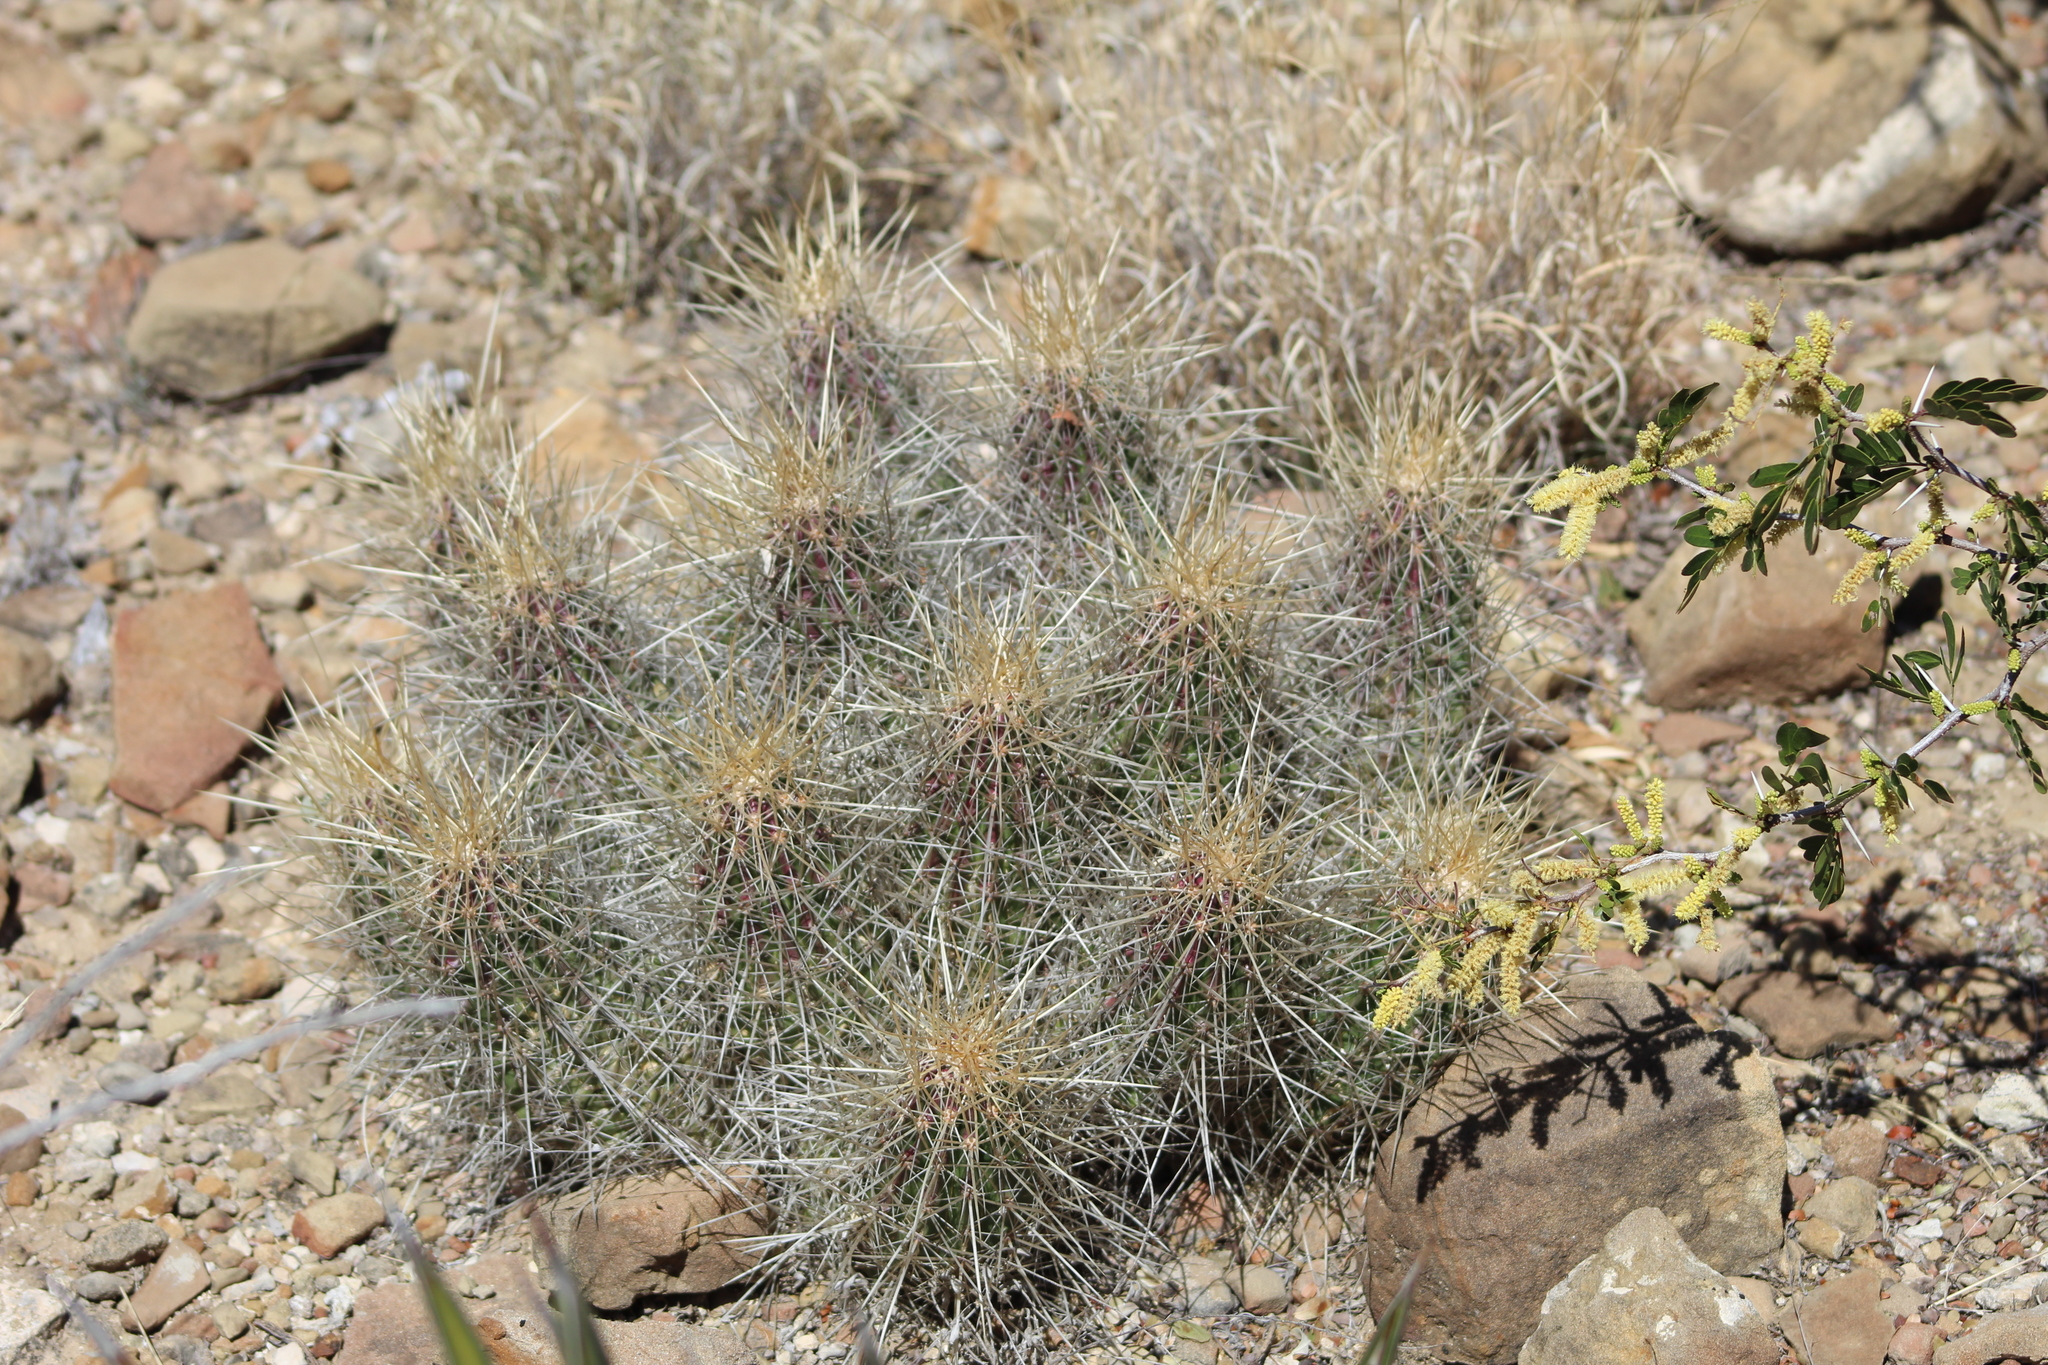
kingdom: Plantae
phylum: Tracheophyta
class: Magnoliopsida
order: Caryophyllales
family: Cactaceae
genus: Echinocereus
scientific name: Echinocereus stramineus
